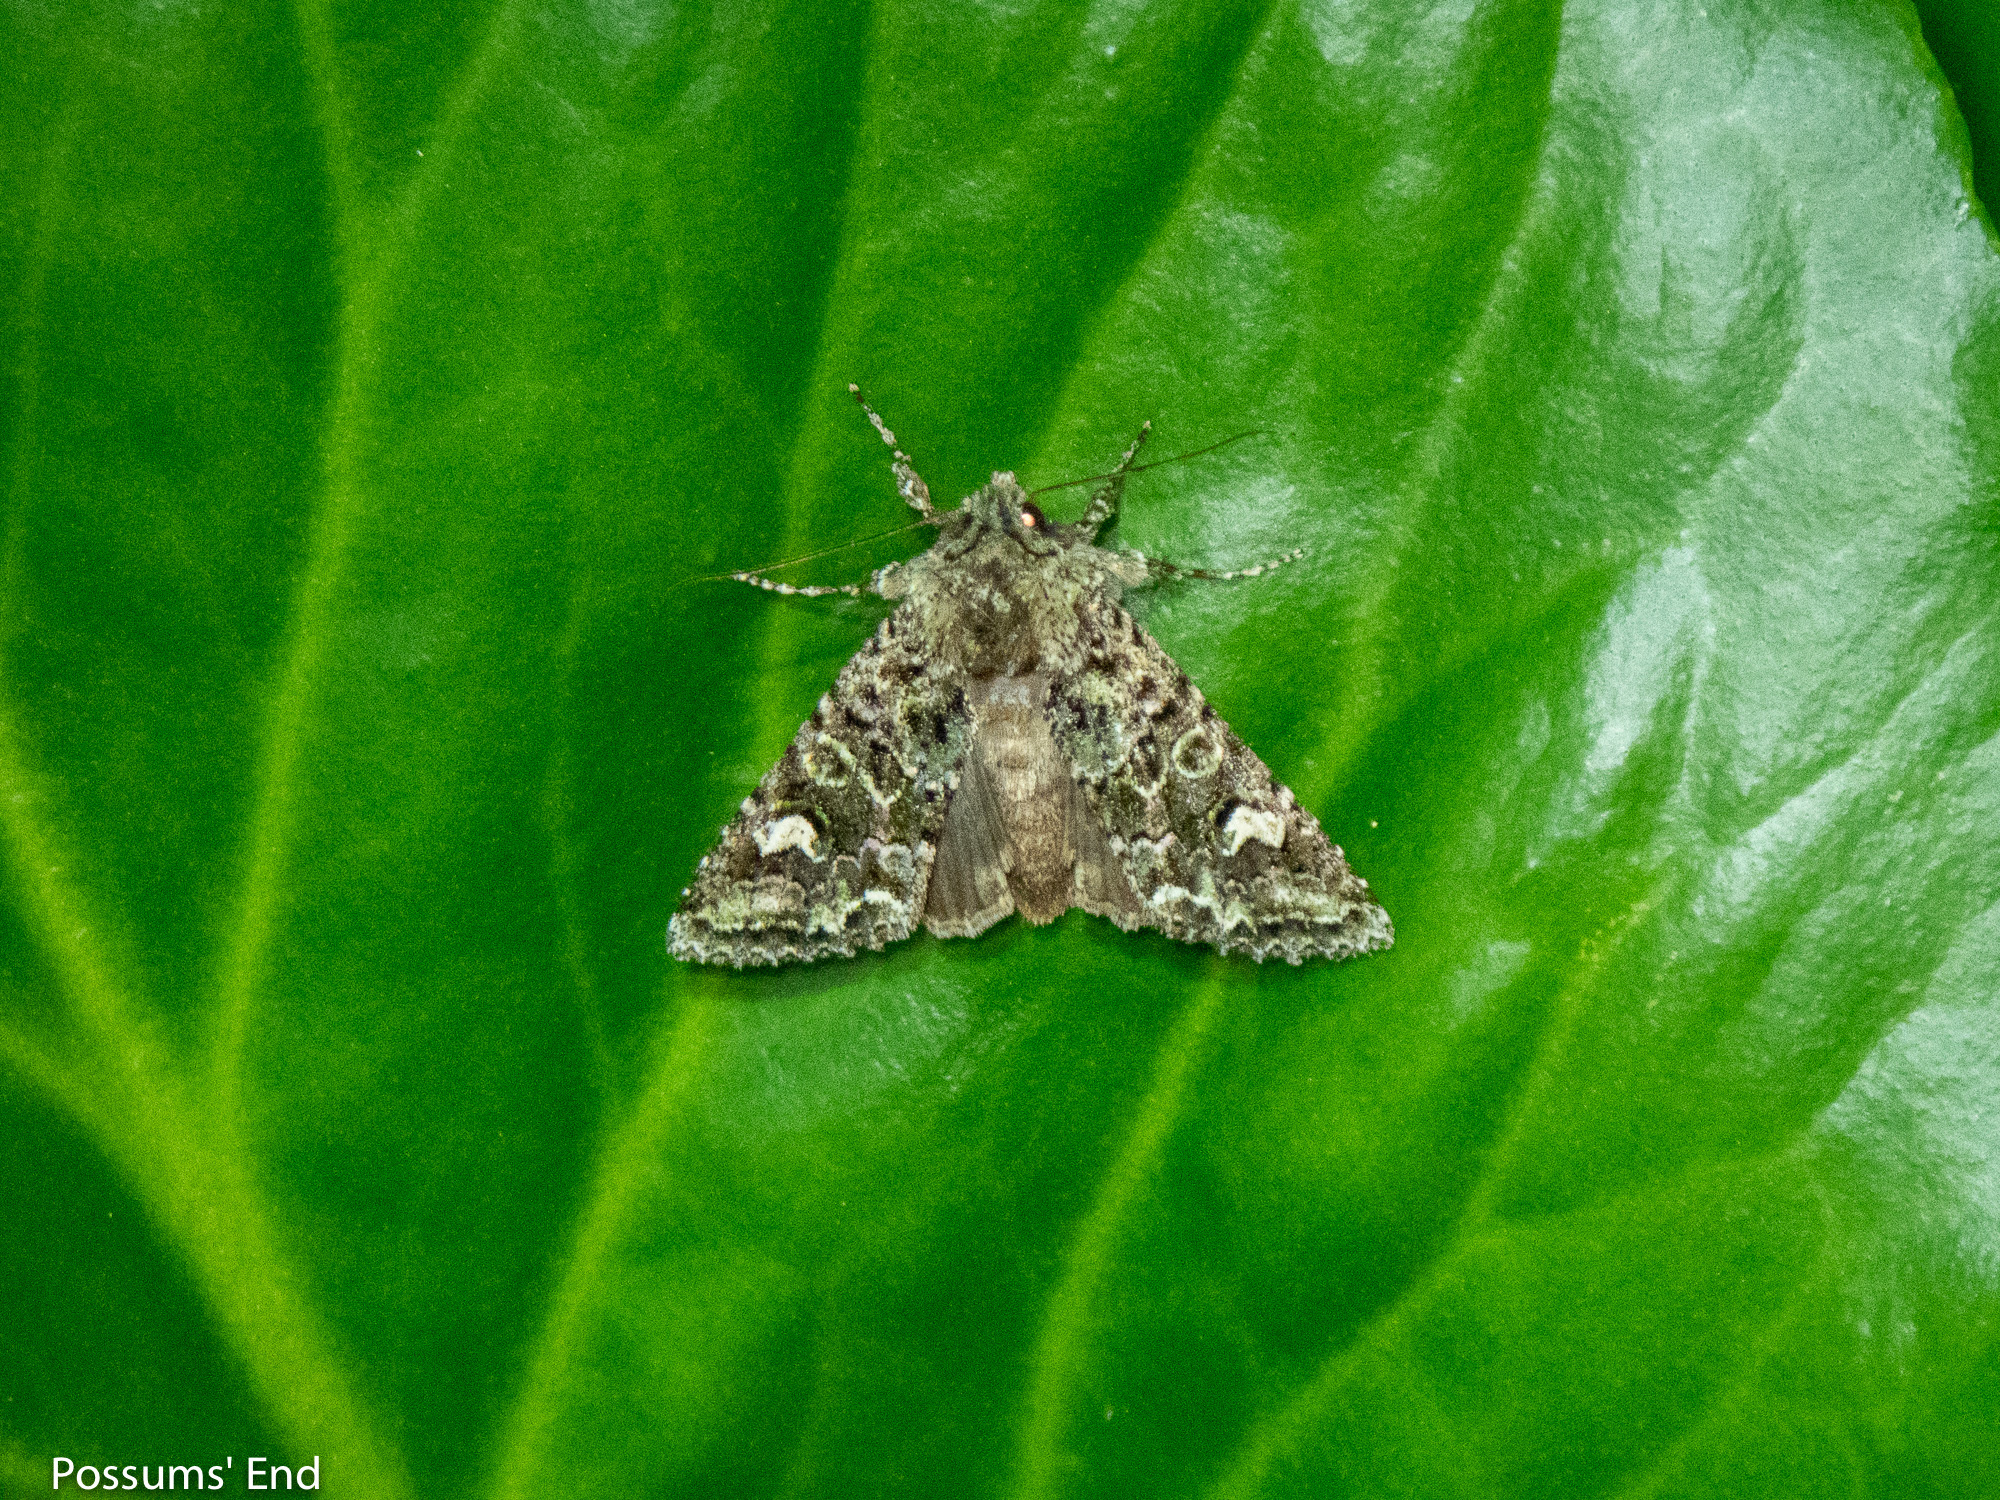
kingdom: Animalia
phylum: Arthropoda
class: Insecta
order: Lepidoptera
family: Noctuidae
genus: Ichneutica
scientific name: Ichneutica
